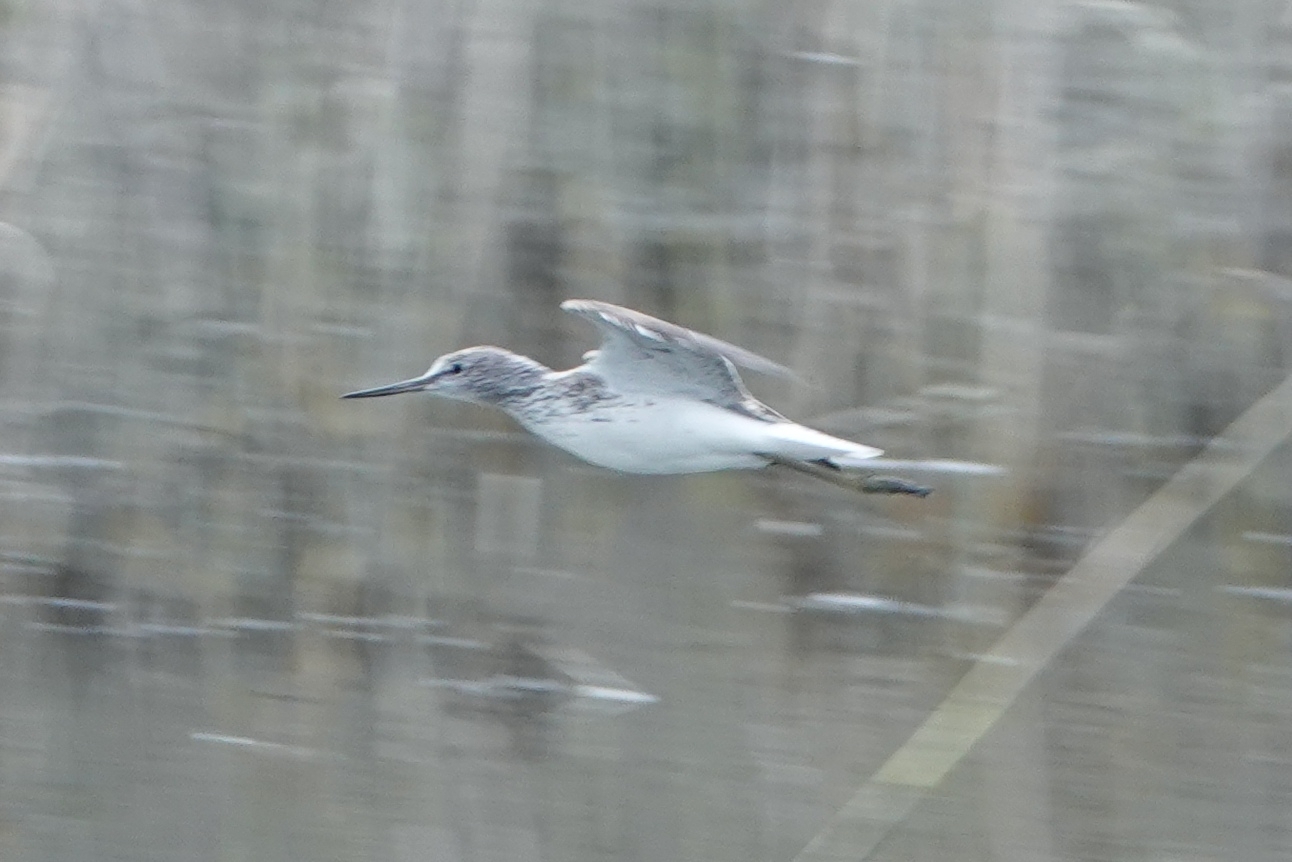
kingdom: Animalia
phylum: Chordata
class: Aves
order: Charadriiformes
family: Scolopacidae
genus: Tringa
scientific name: Tringa nebularia
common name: Common greenshank
